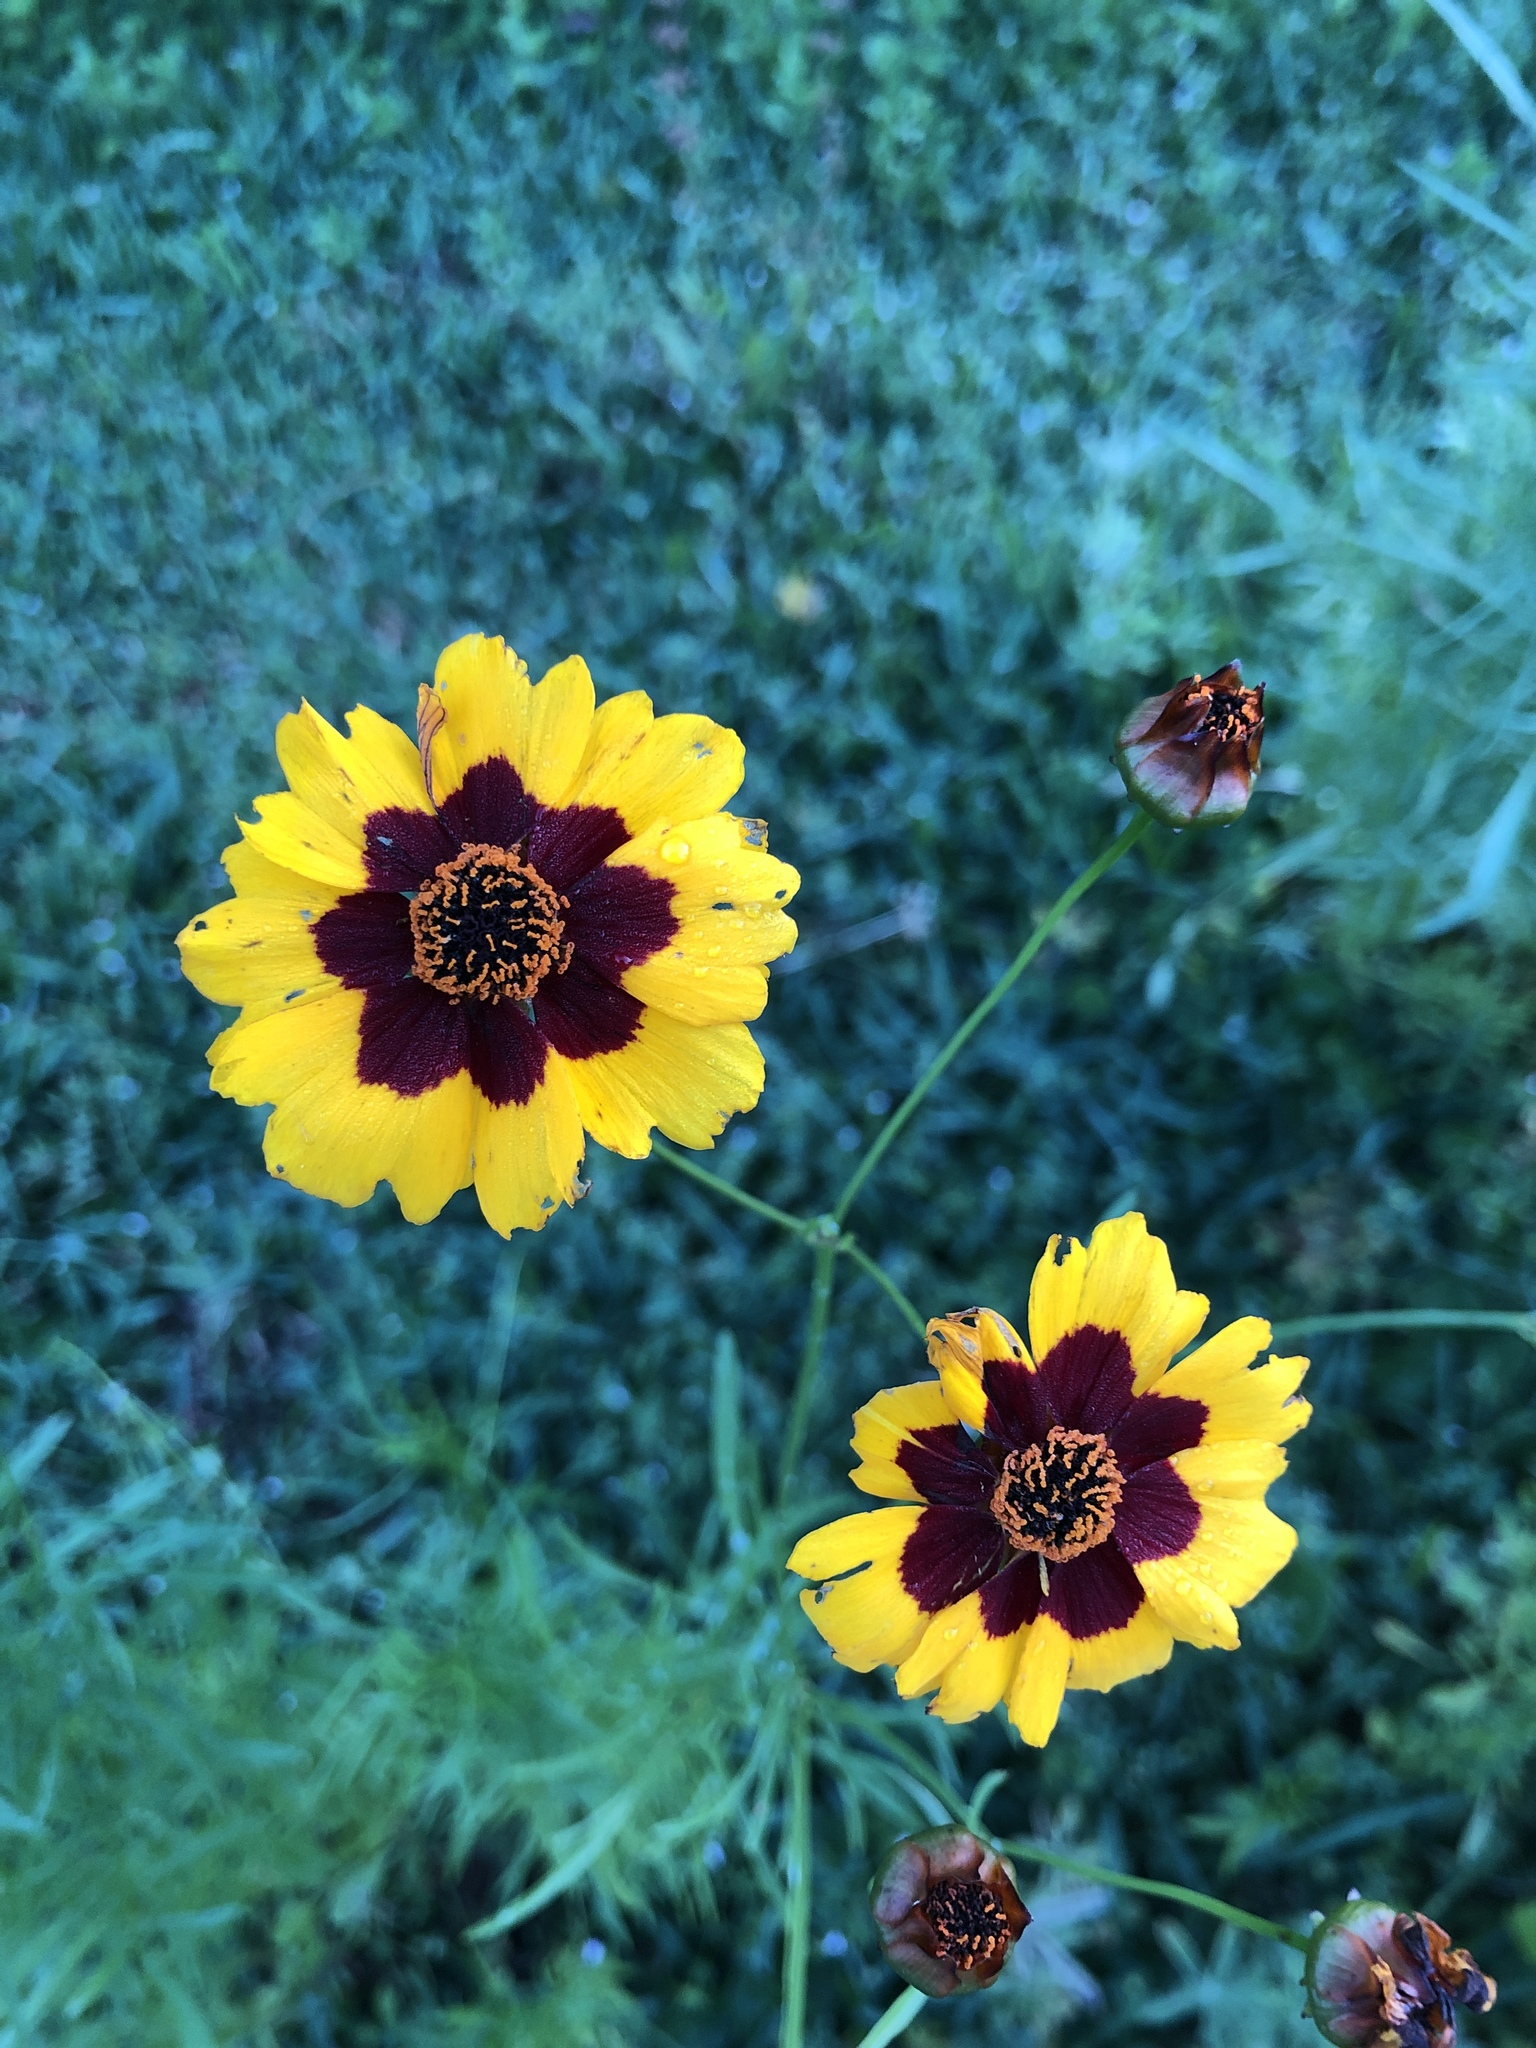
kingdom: Plantae
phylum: Tracheophyta
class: Magnoliopsida
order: Asterales
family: Asteraceae
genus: Coreopsis
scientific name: Coreopsis tinctoria
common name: Garden tickseed
